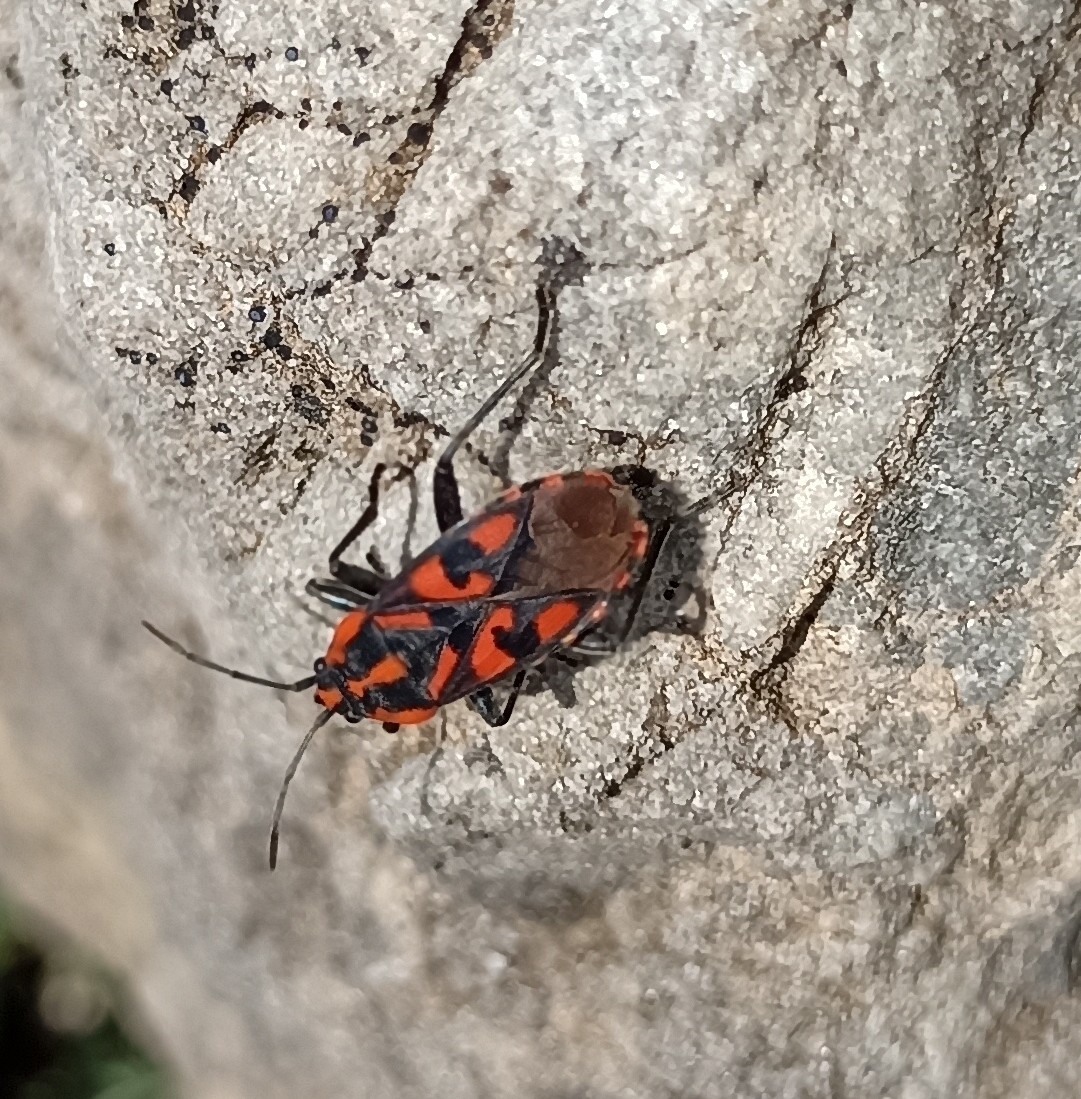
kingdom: Animalia
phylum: Arthropoda
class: Insecta
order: Hemiptera
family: Lygaeidae
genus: Spilostethus
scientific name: Spilostethus saxatilis
